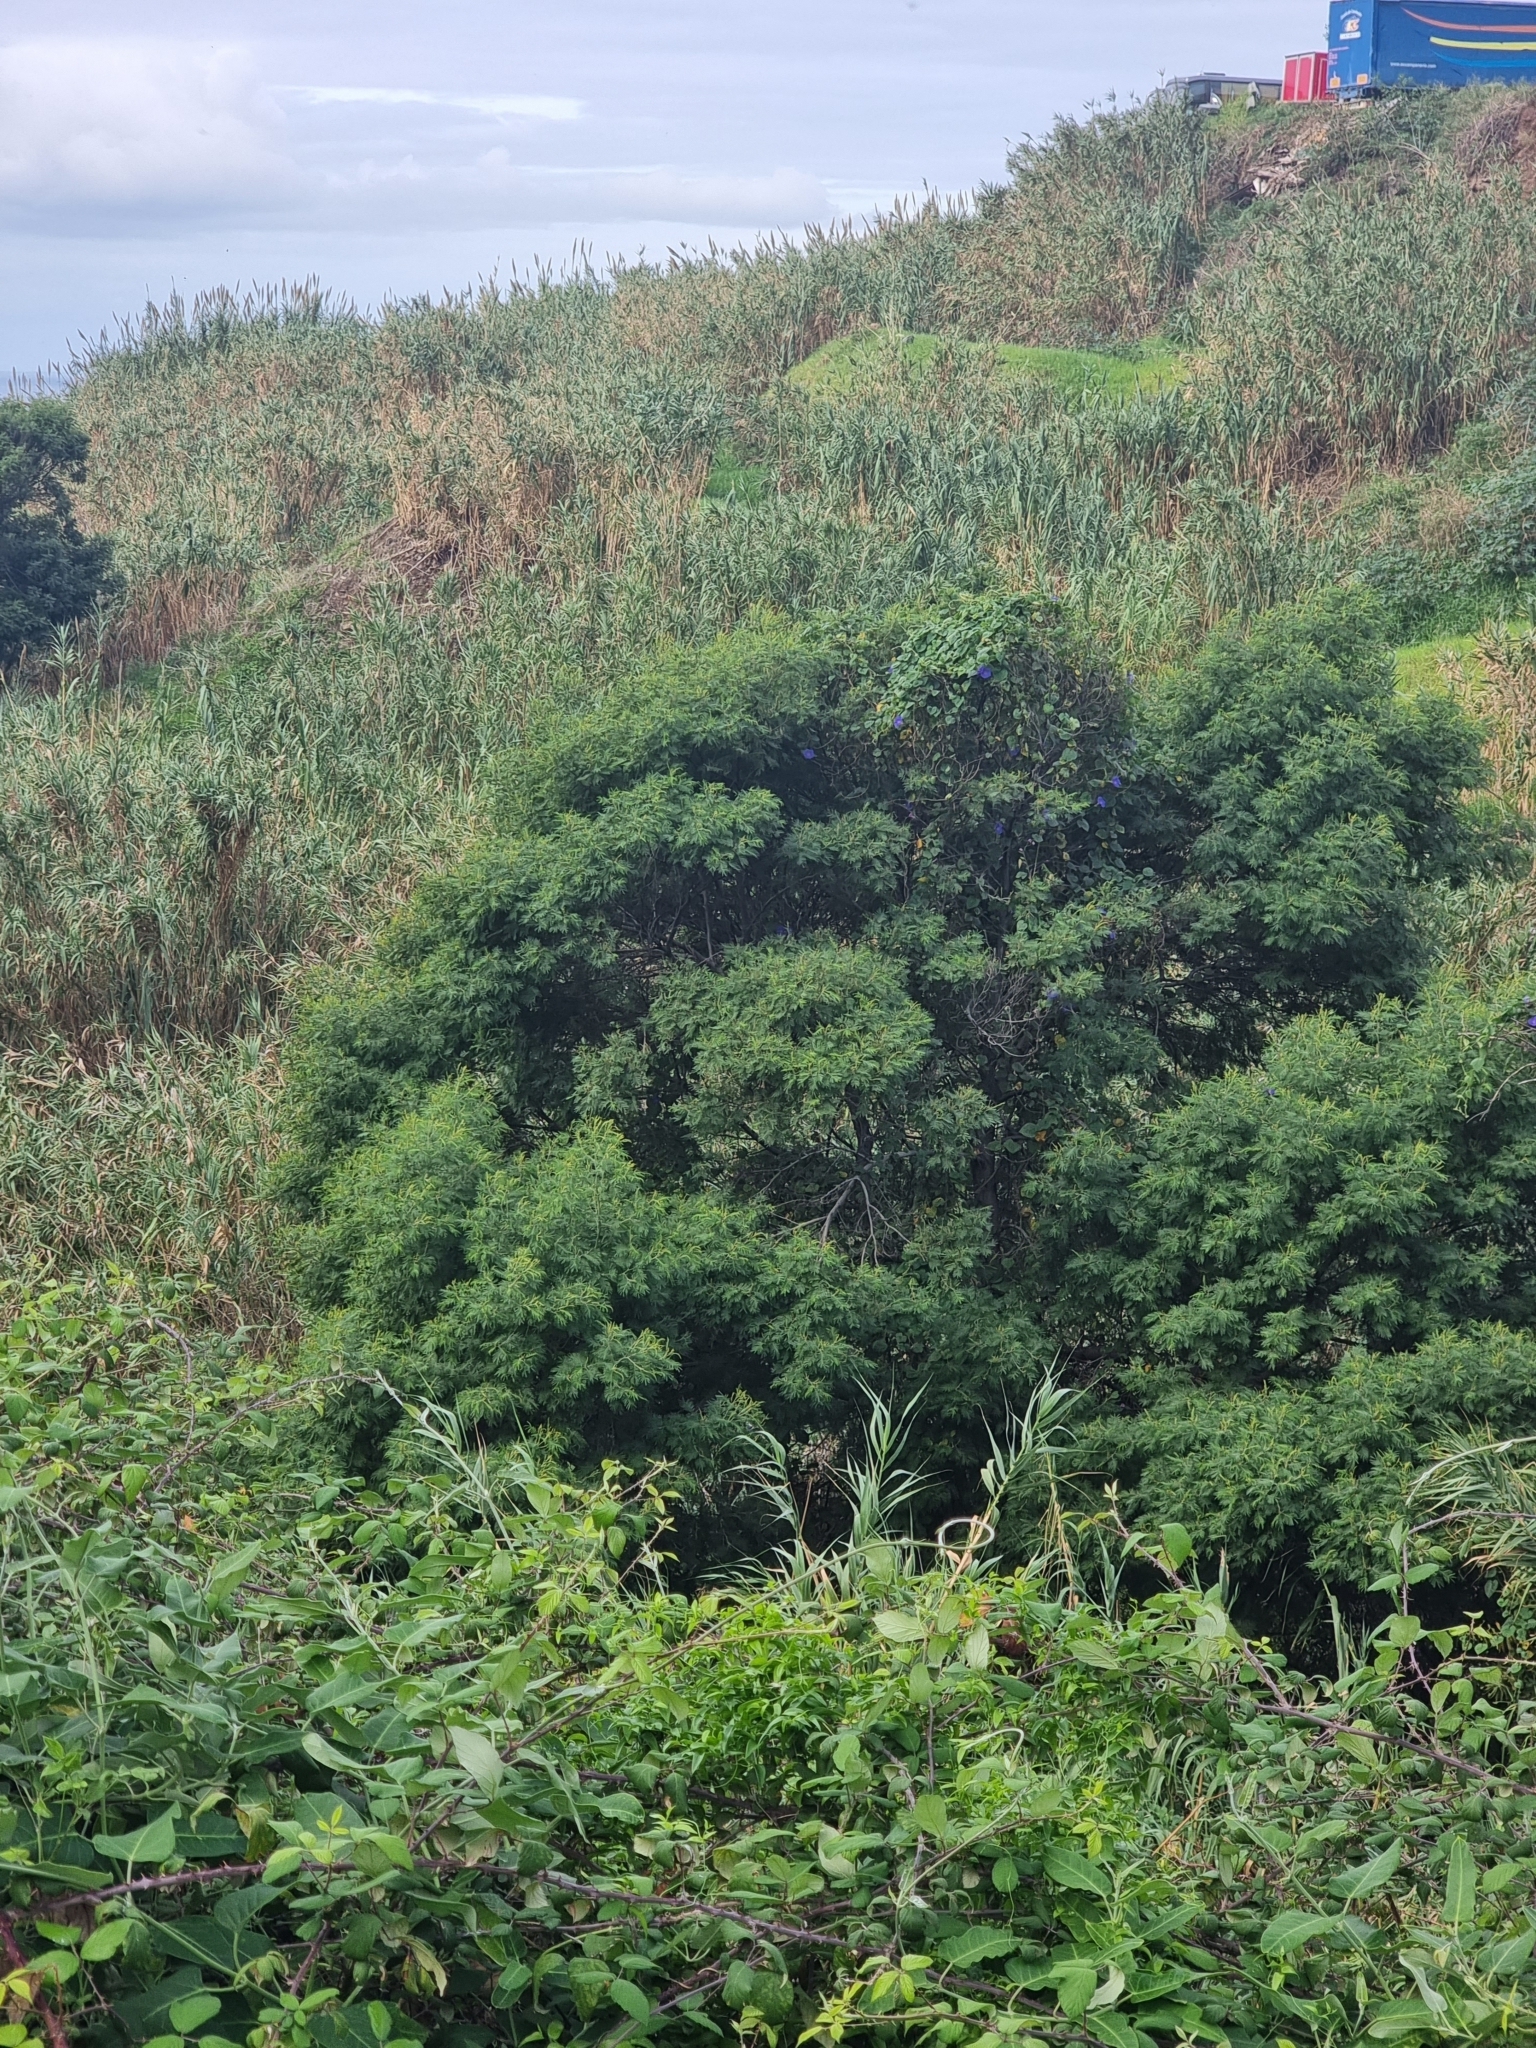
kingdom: Plantae
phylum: Tracheophyta
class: Magnoliopsida
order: Fabales
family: Fabaceae
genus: Acacia
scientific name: Acacia mearnsii
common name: Black wattle
